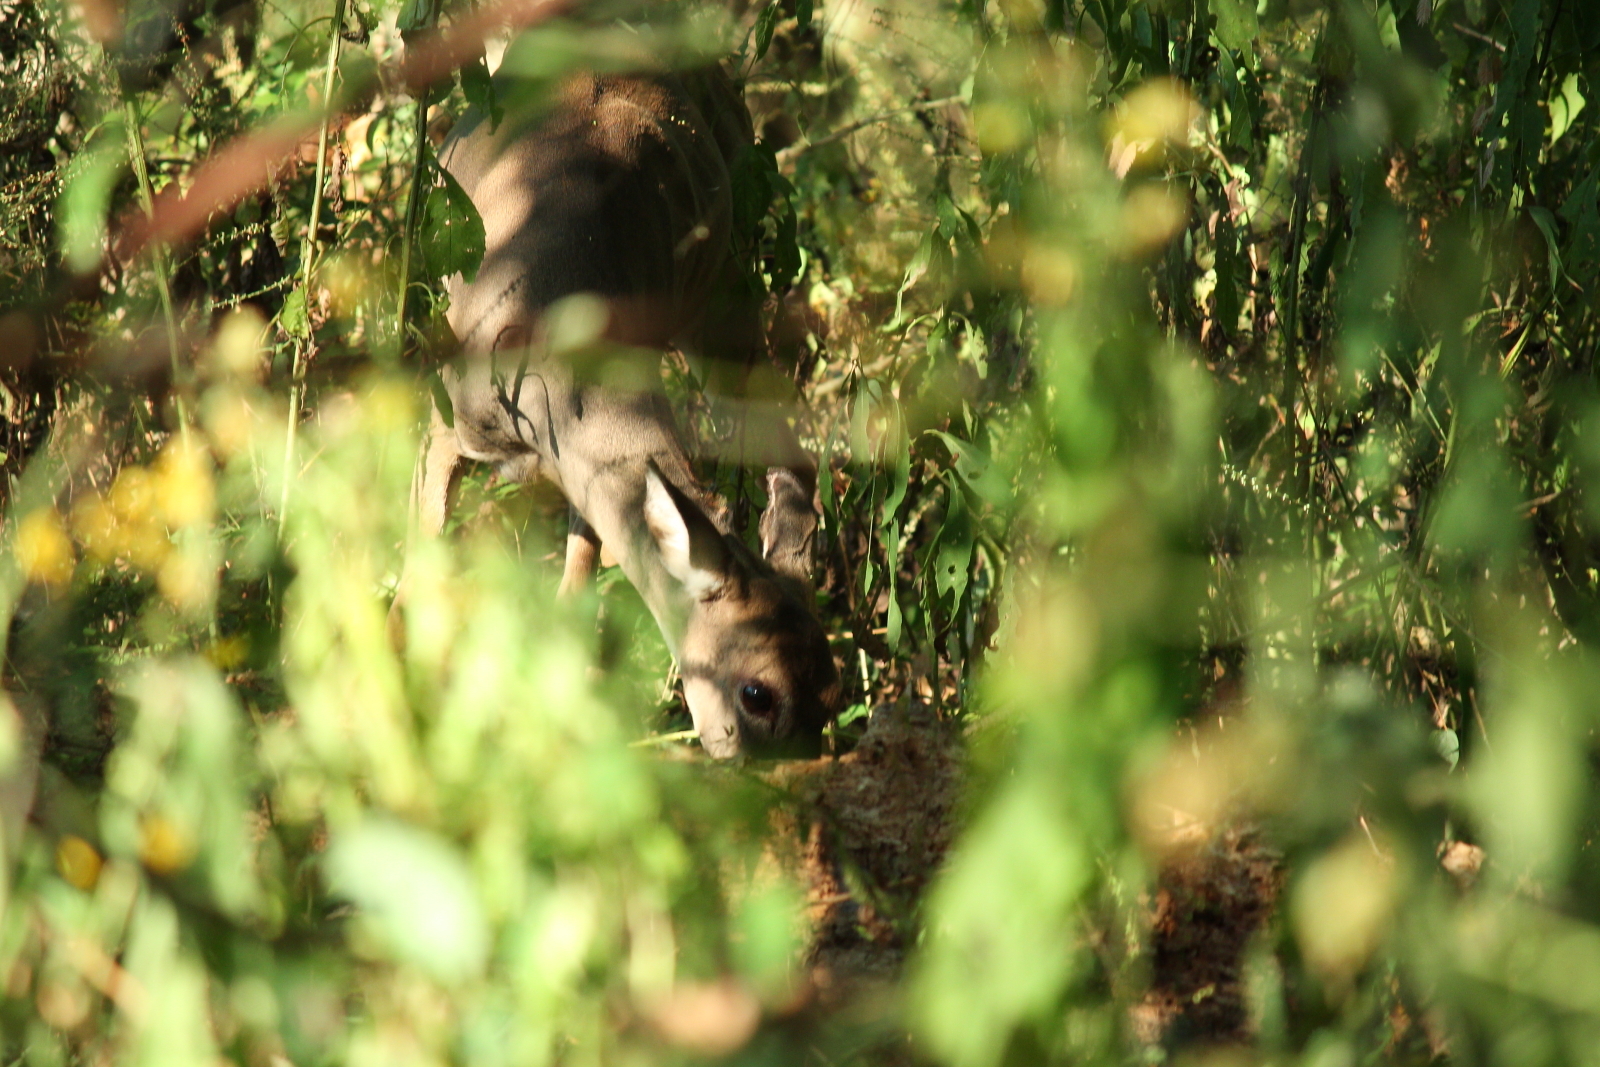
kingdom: Animalia
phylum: Chordata
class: Mammalia
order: Artiodactyla
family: Cervidae
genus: Odocoileus
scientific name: Odocoileus virginianus
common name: White-tailed deer
